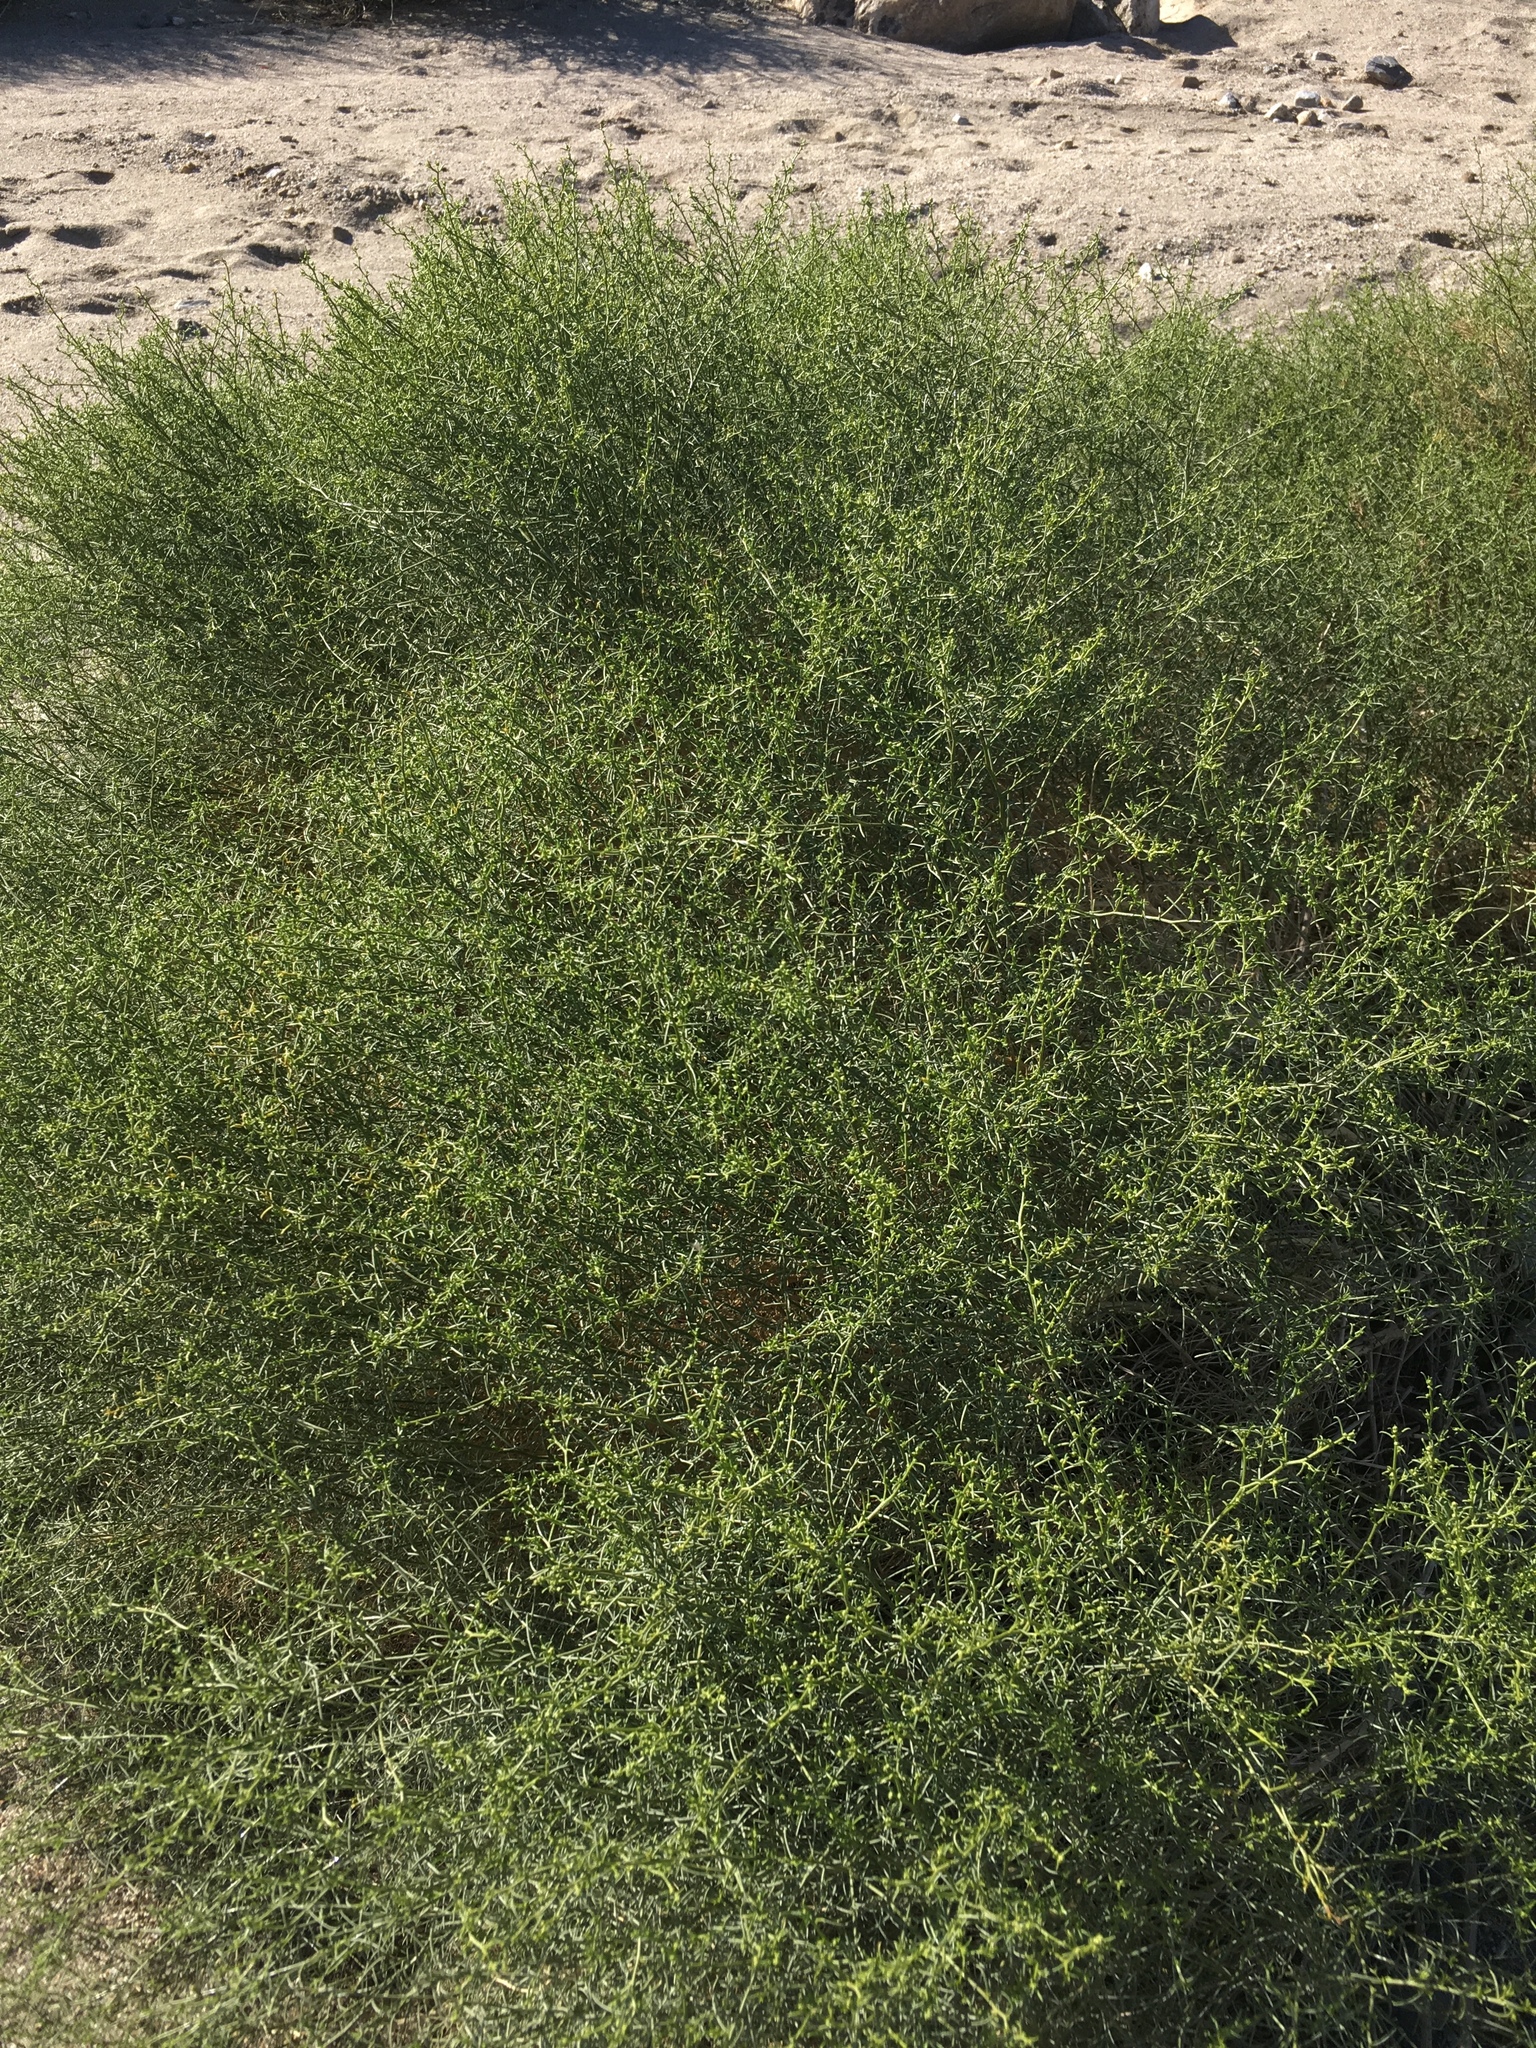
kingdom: Plantae
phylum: Tracheophyta
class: Magnoliopsida
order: Asterales
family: Asteraceae
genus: Ambrosia
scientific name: Ambrosia salsola
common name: Burrobrush
